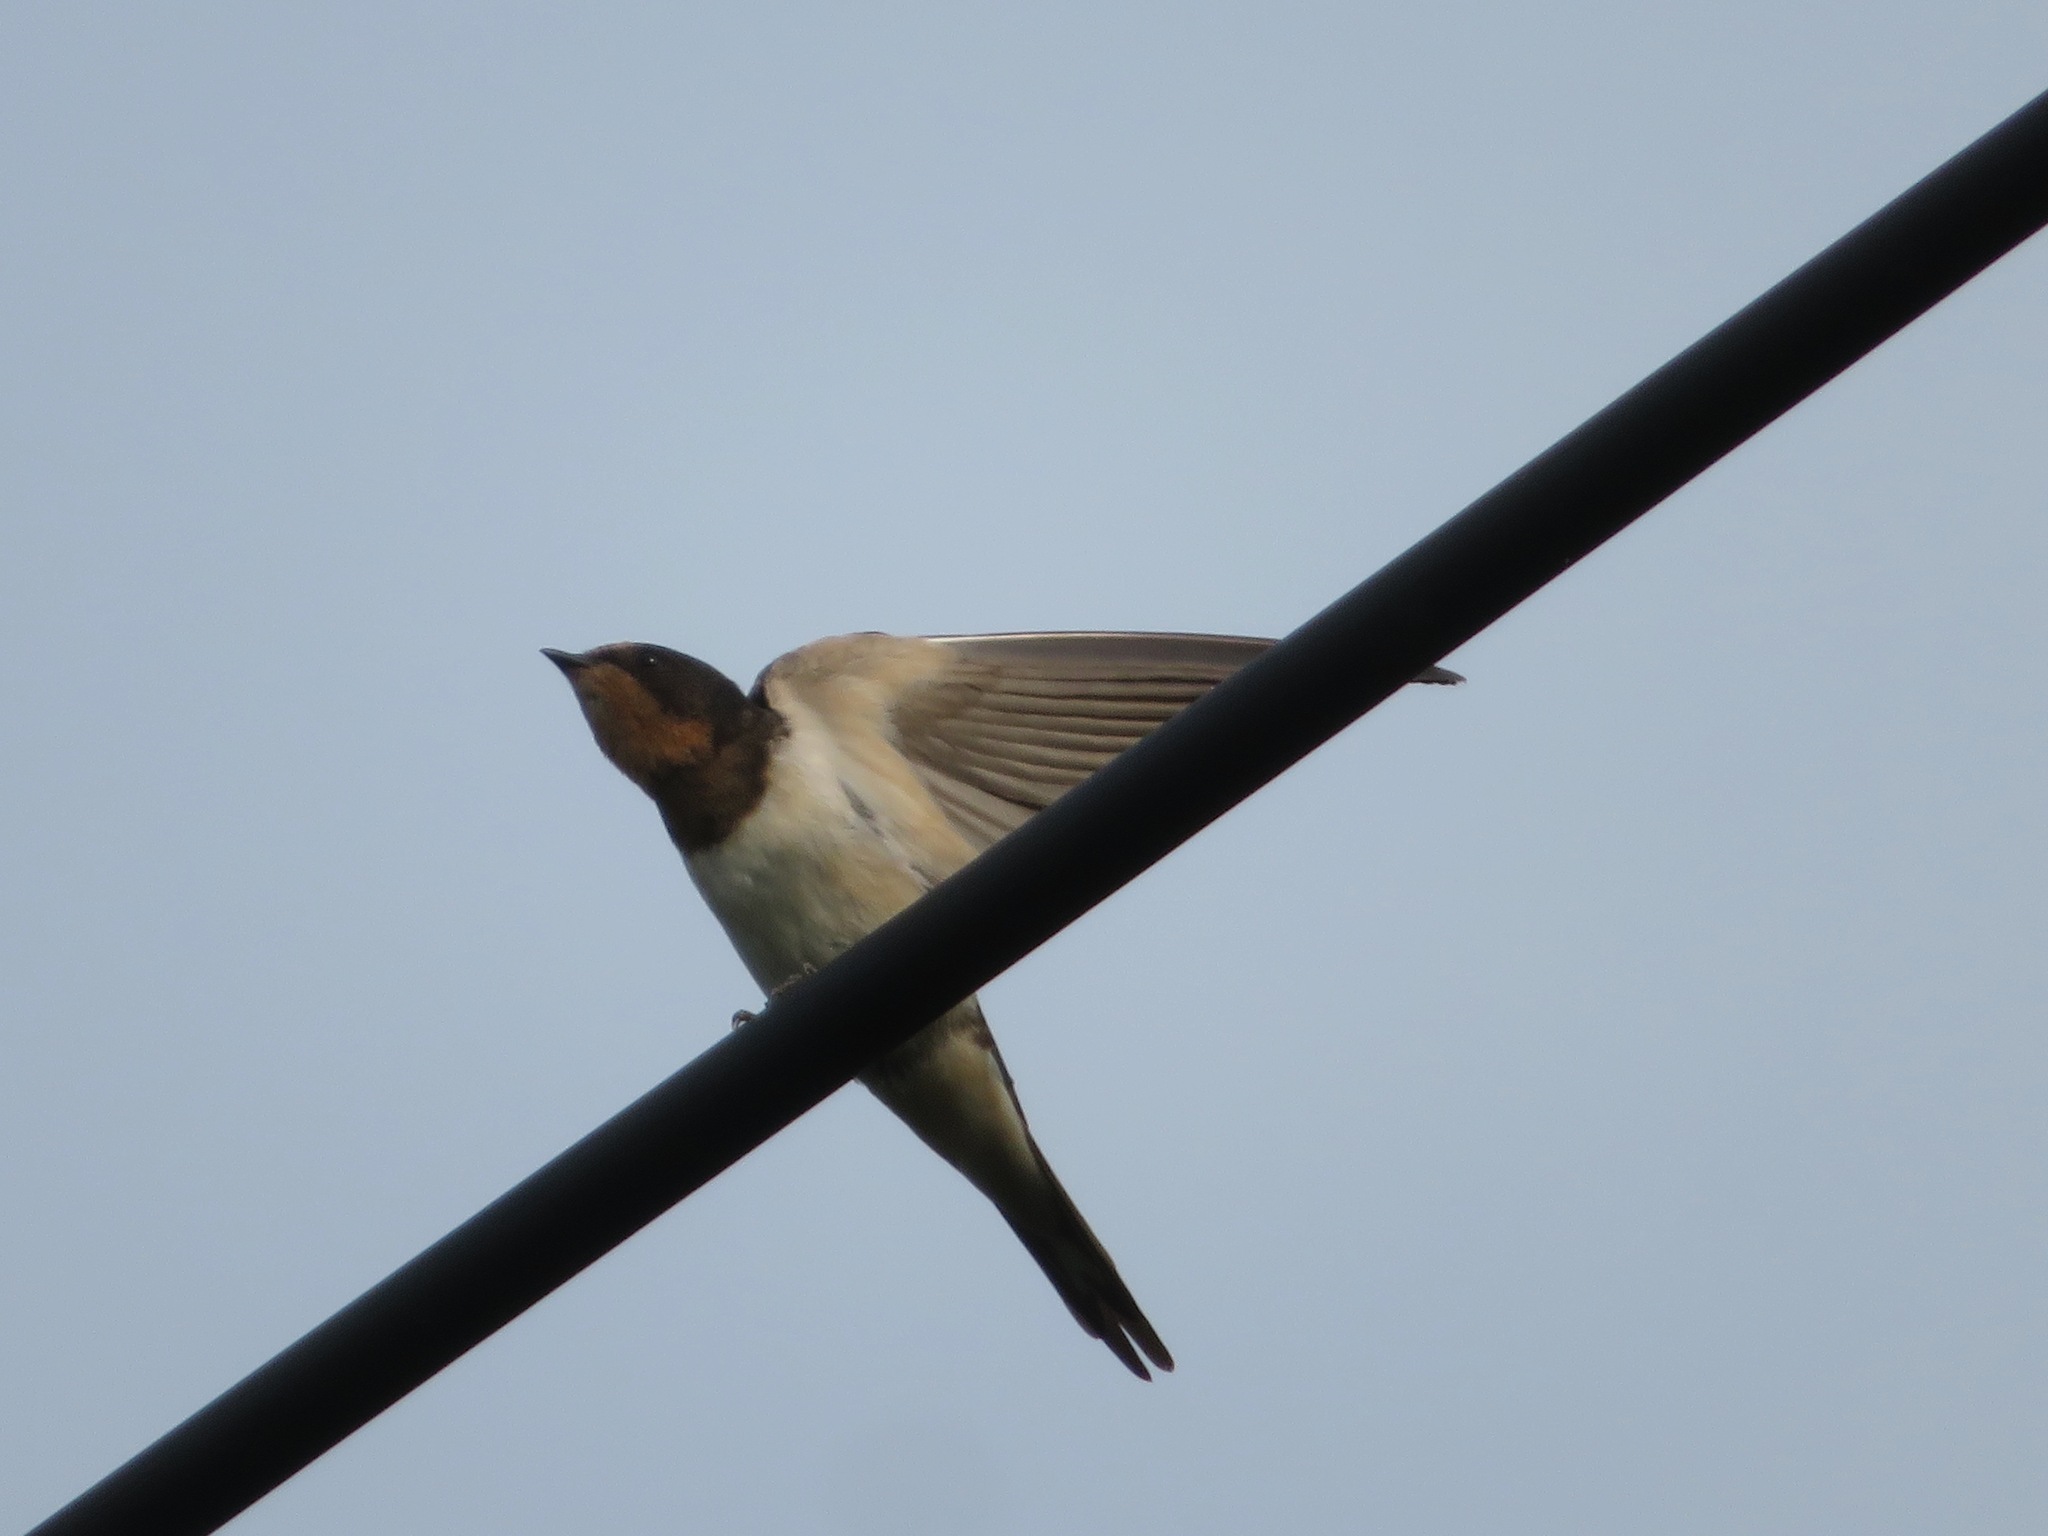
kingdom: Animalia
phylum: Chordata
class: Aves
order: Passeriformes
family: Hirundinidae
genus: Hirundo
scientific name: Hirundo rustica
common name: Barn swallow
